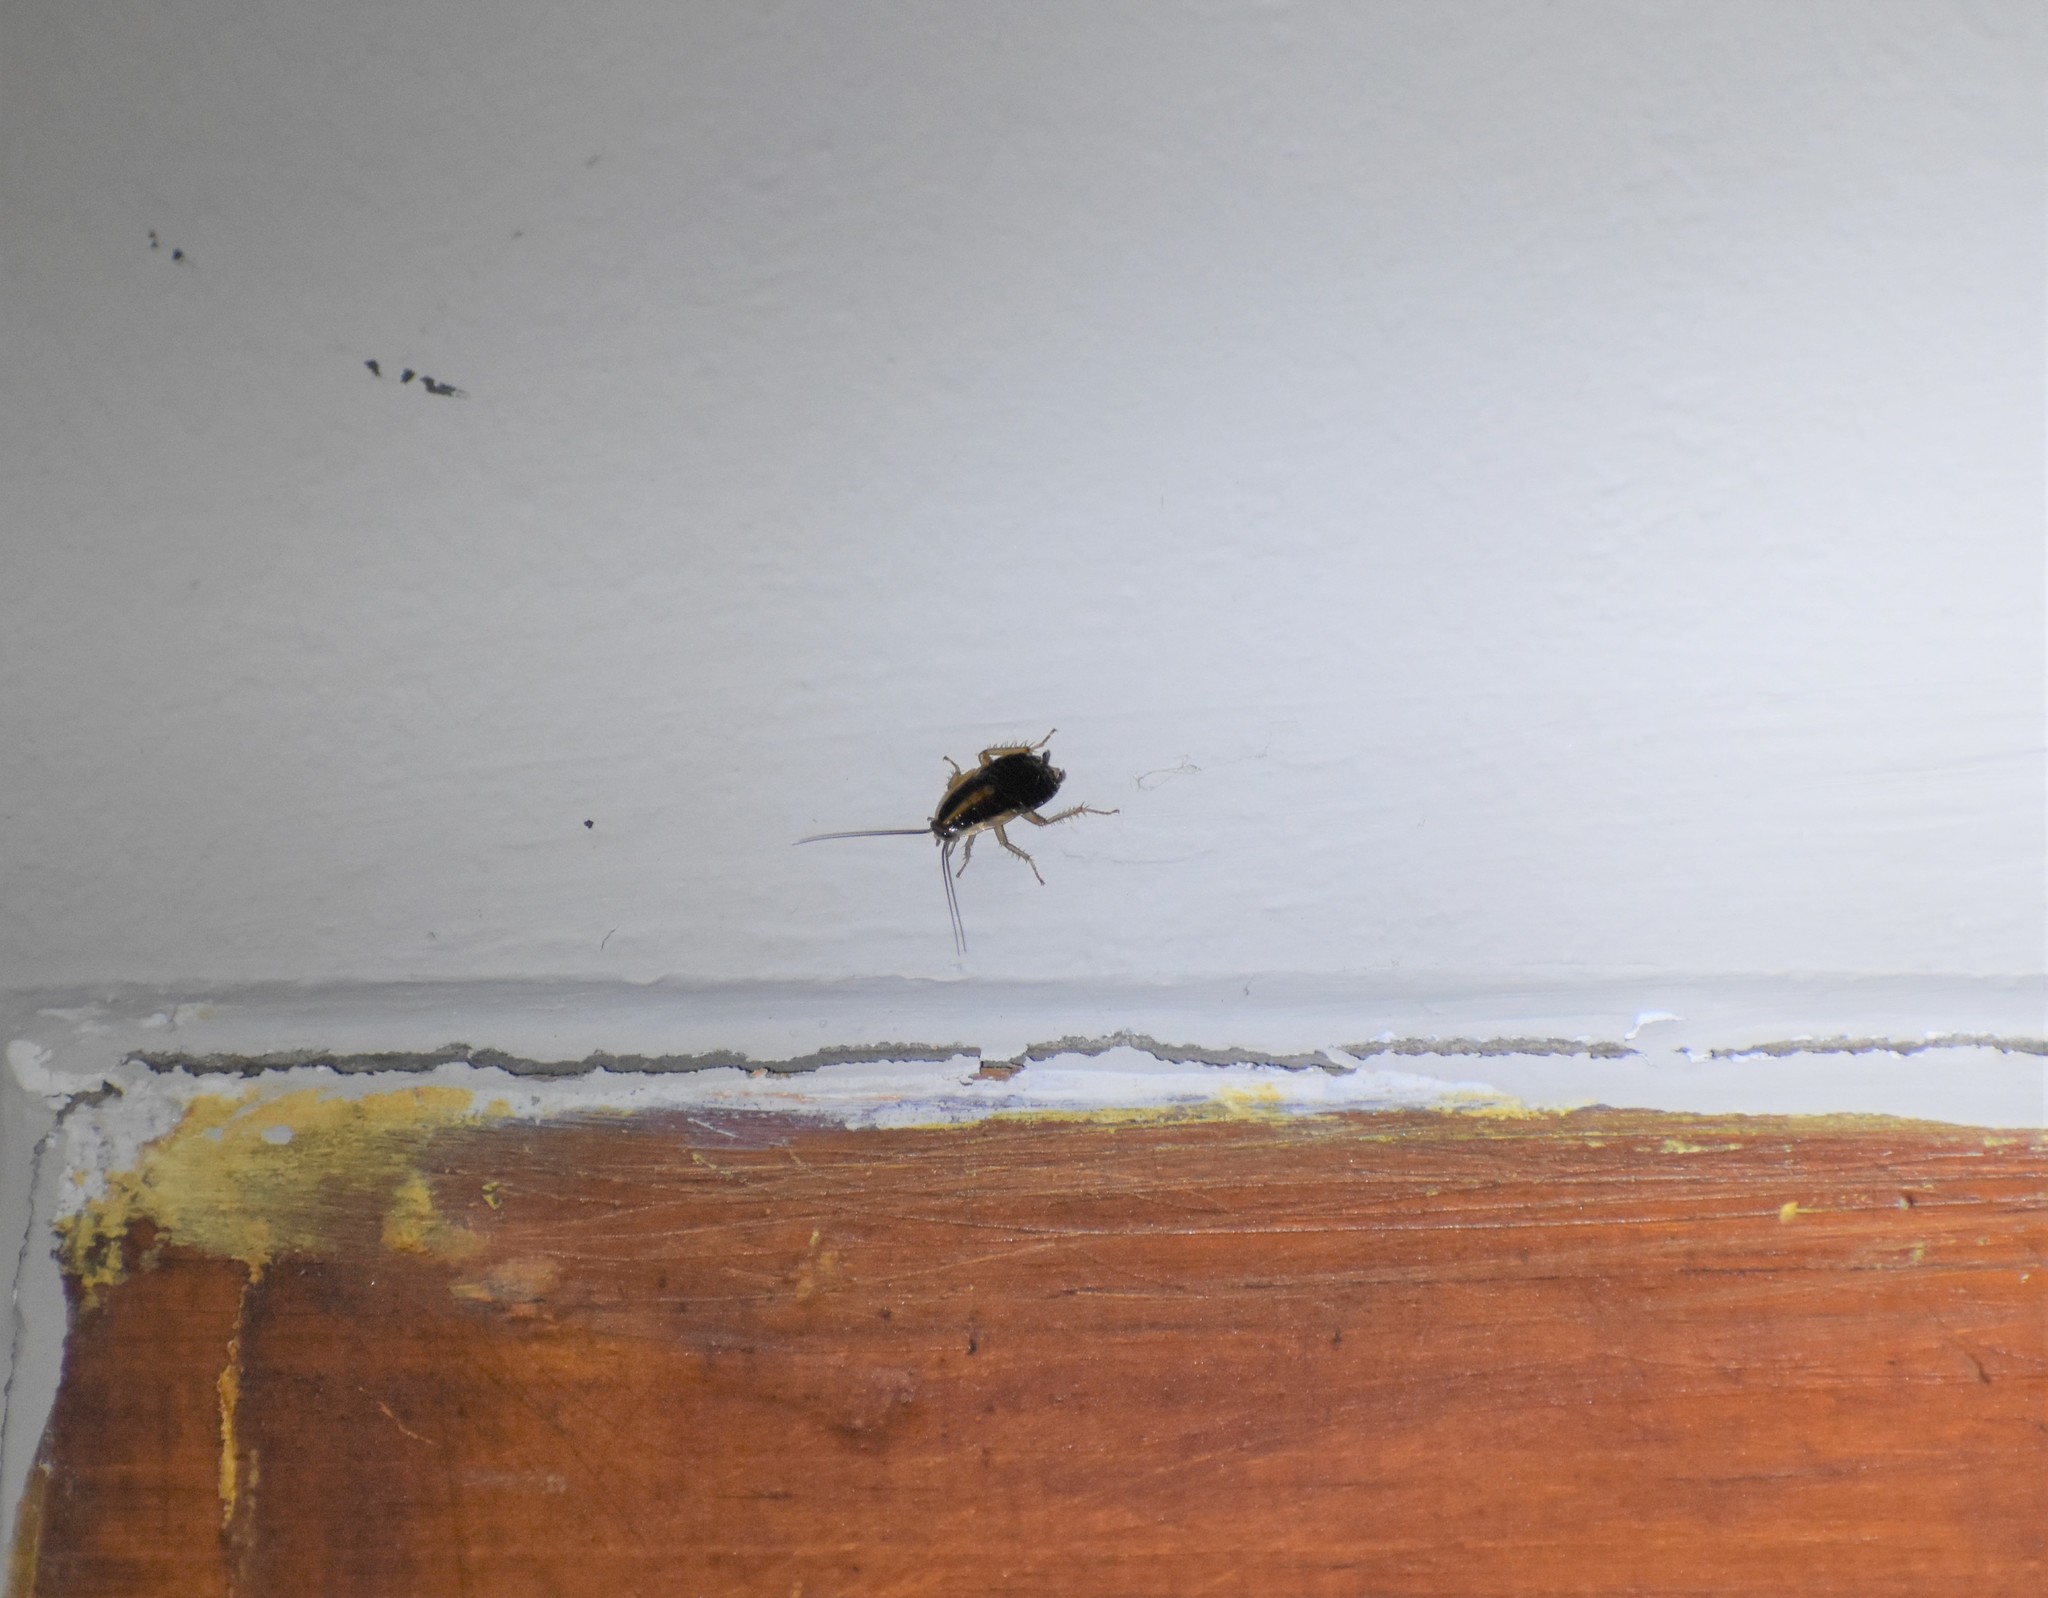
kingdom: Animalia
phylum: Arthropoda
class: Insecta
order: Blattodea
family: Ectobiidae
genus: Blattella
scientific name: Blattella germanica
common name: German cockroach
